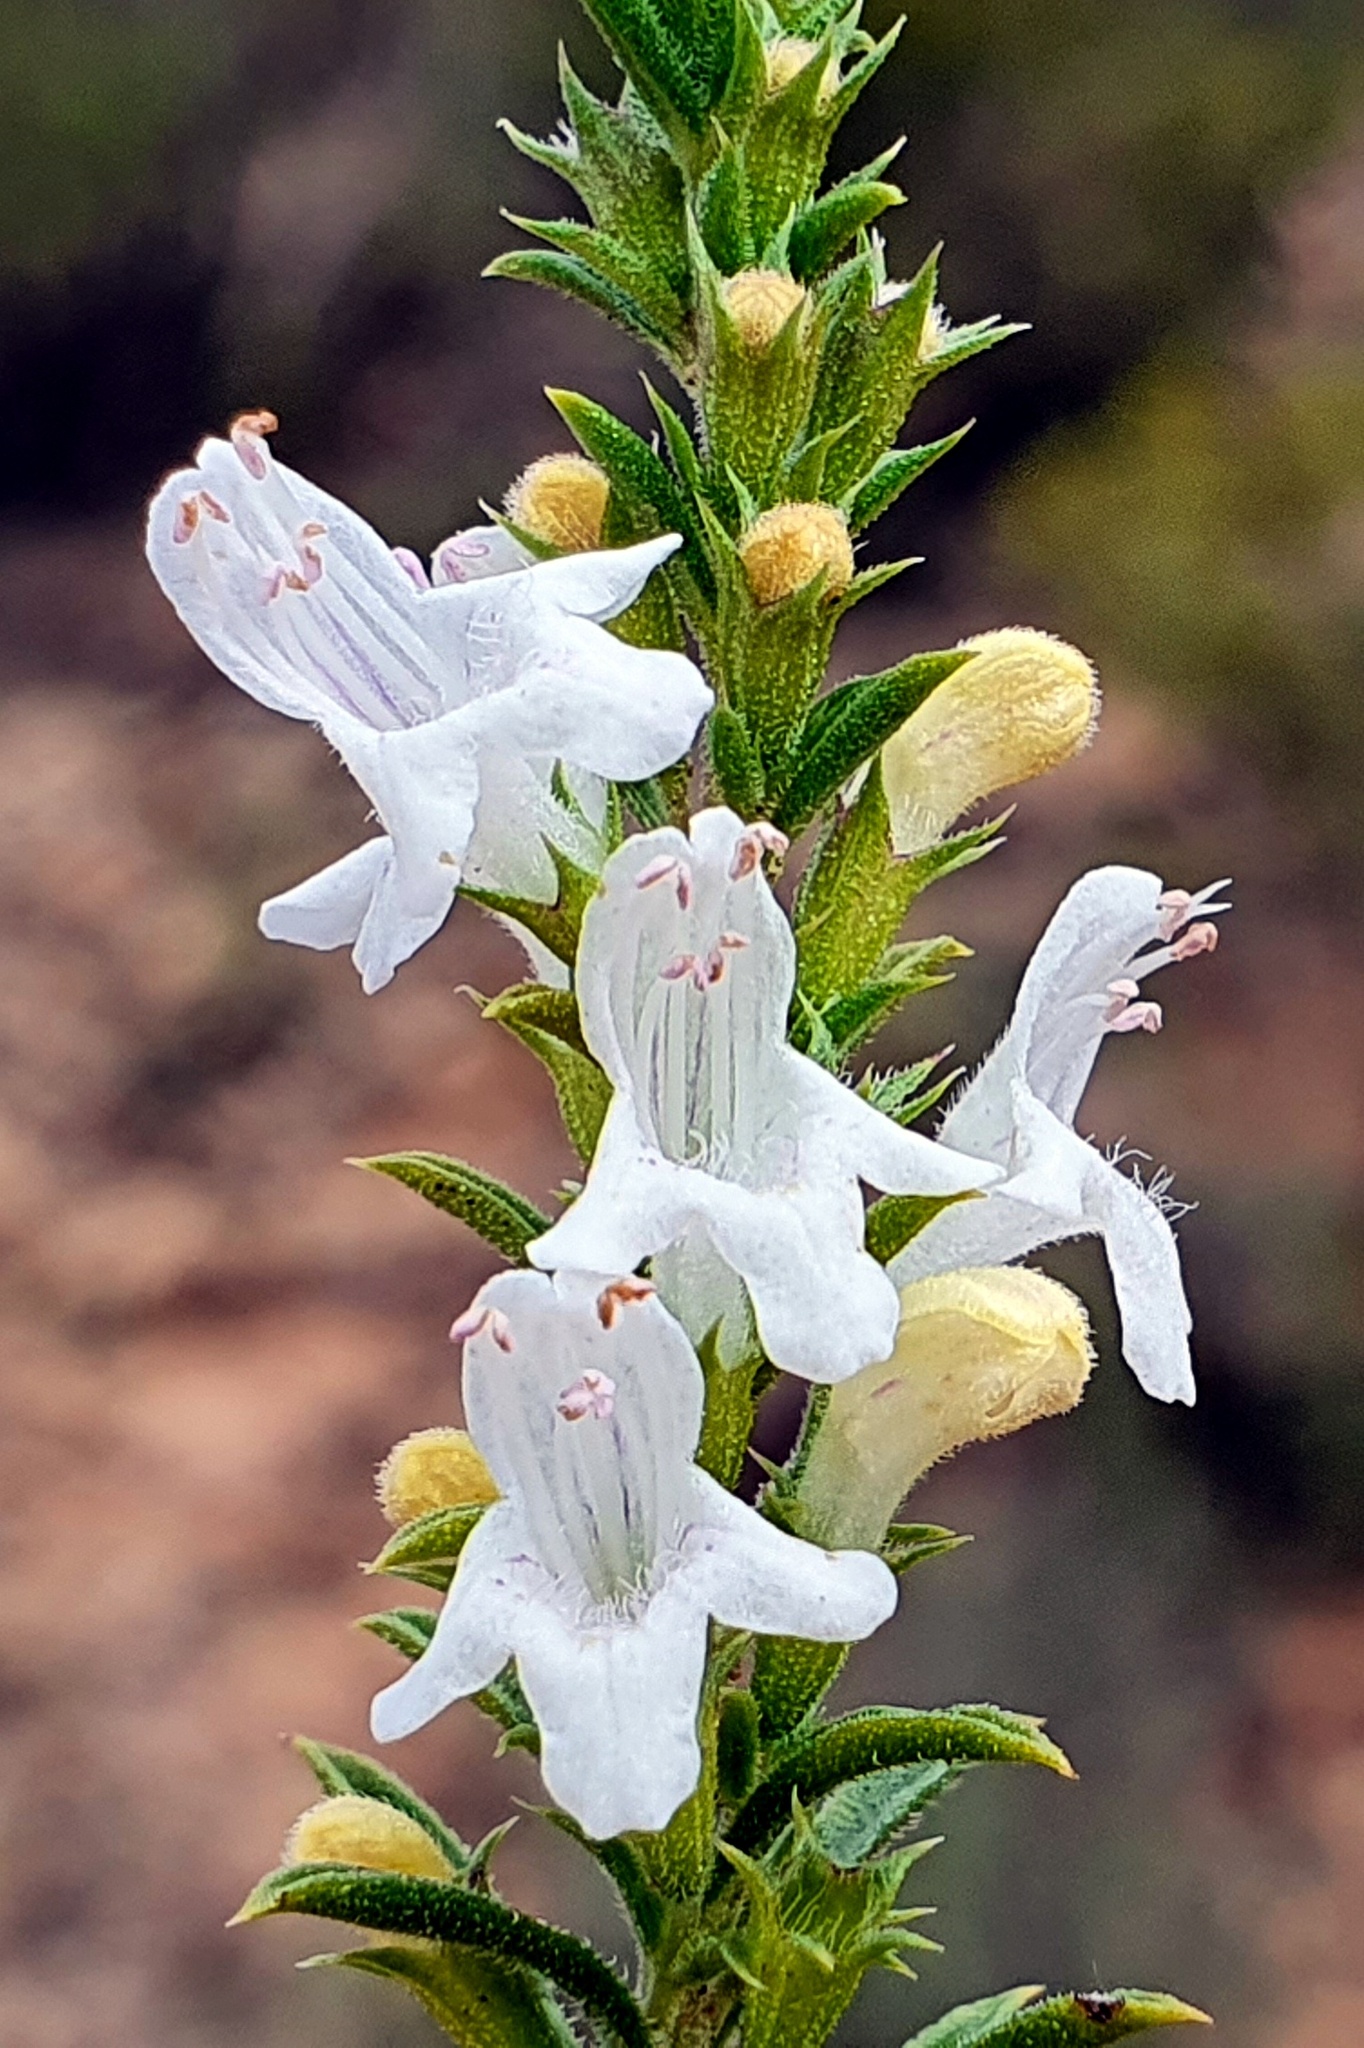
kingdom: Plantae
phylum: Tracheophyta
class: Magnoliopsida
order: Lamiales
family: Lamiaceae
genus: Satureja
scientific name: Satureja montana
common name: Winter savory
